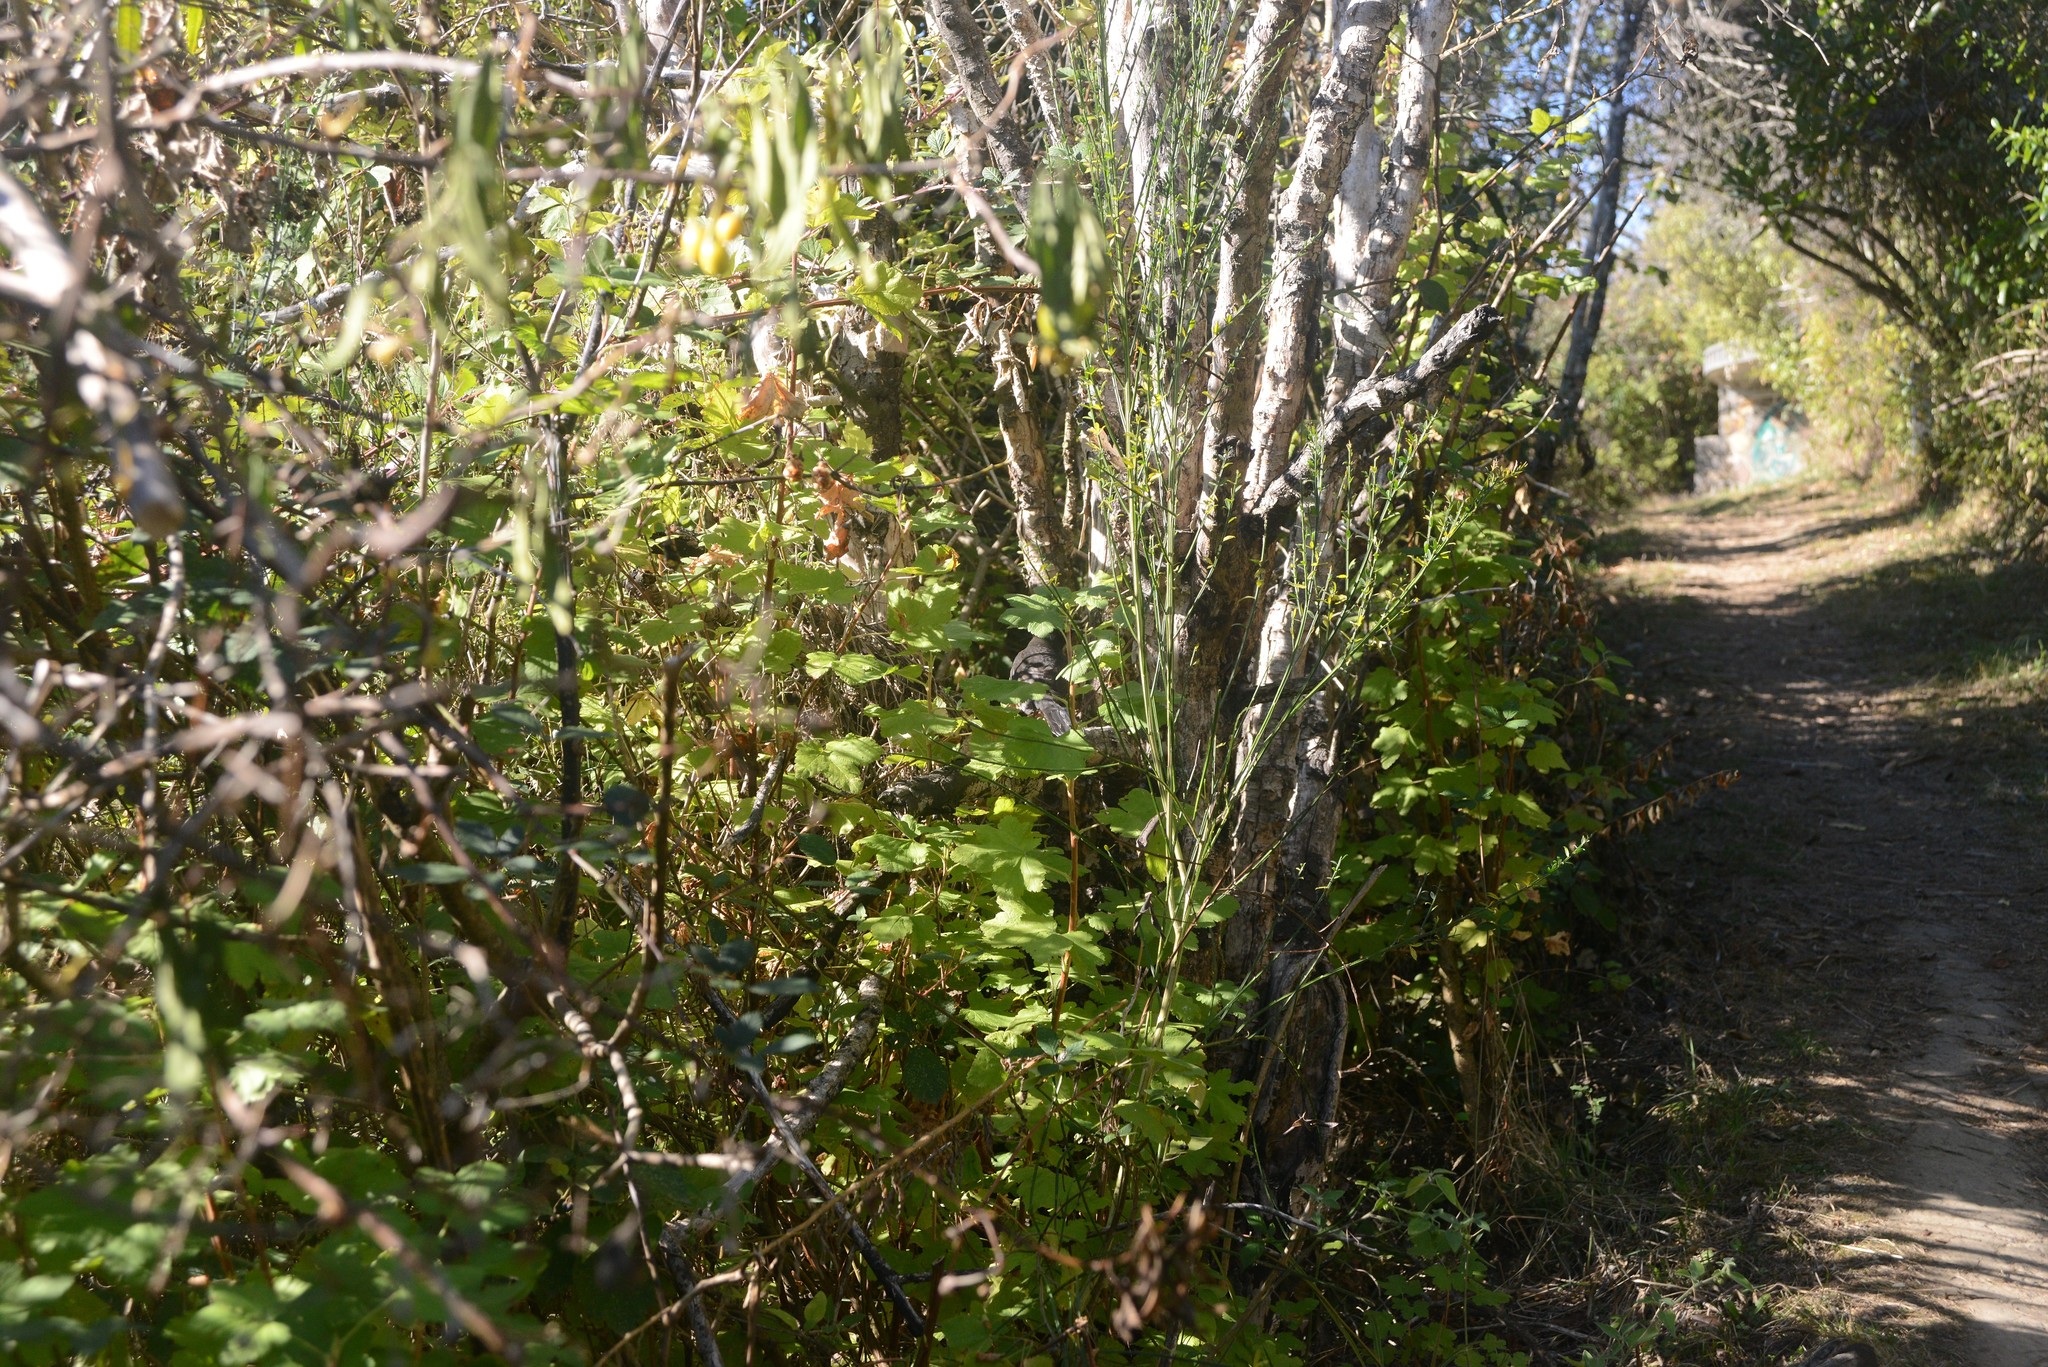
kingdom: Plantae
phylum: Tracheophyta
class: Magnoliopsida
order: Saxifragales
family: Grossulariaceae
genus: Ribes
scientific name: Ribes sanguineum
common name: Flowering currant
